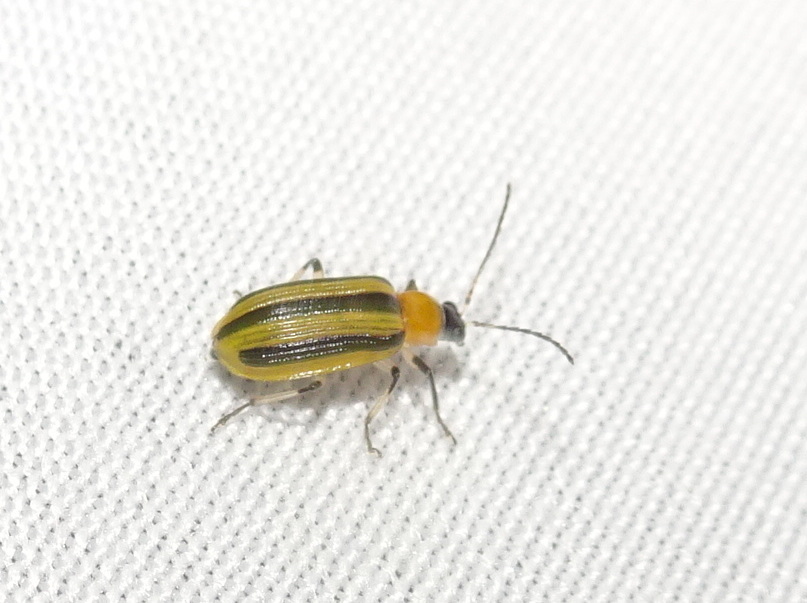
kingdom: Animalia
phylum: Arthropoda
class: Insecta
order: Coleoptera
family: Chrysomelidae
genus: Acalymma
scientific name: Acalymma vittatum
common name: Striped cucumber beetle
